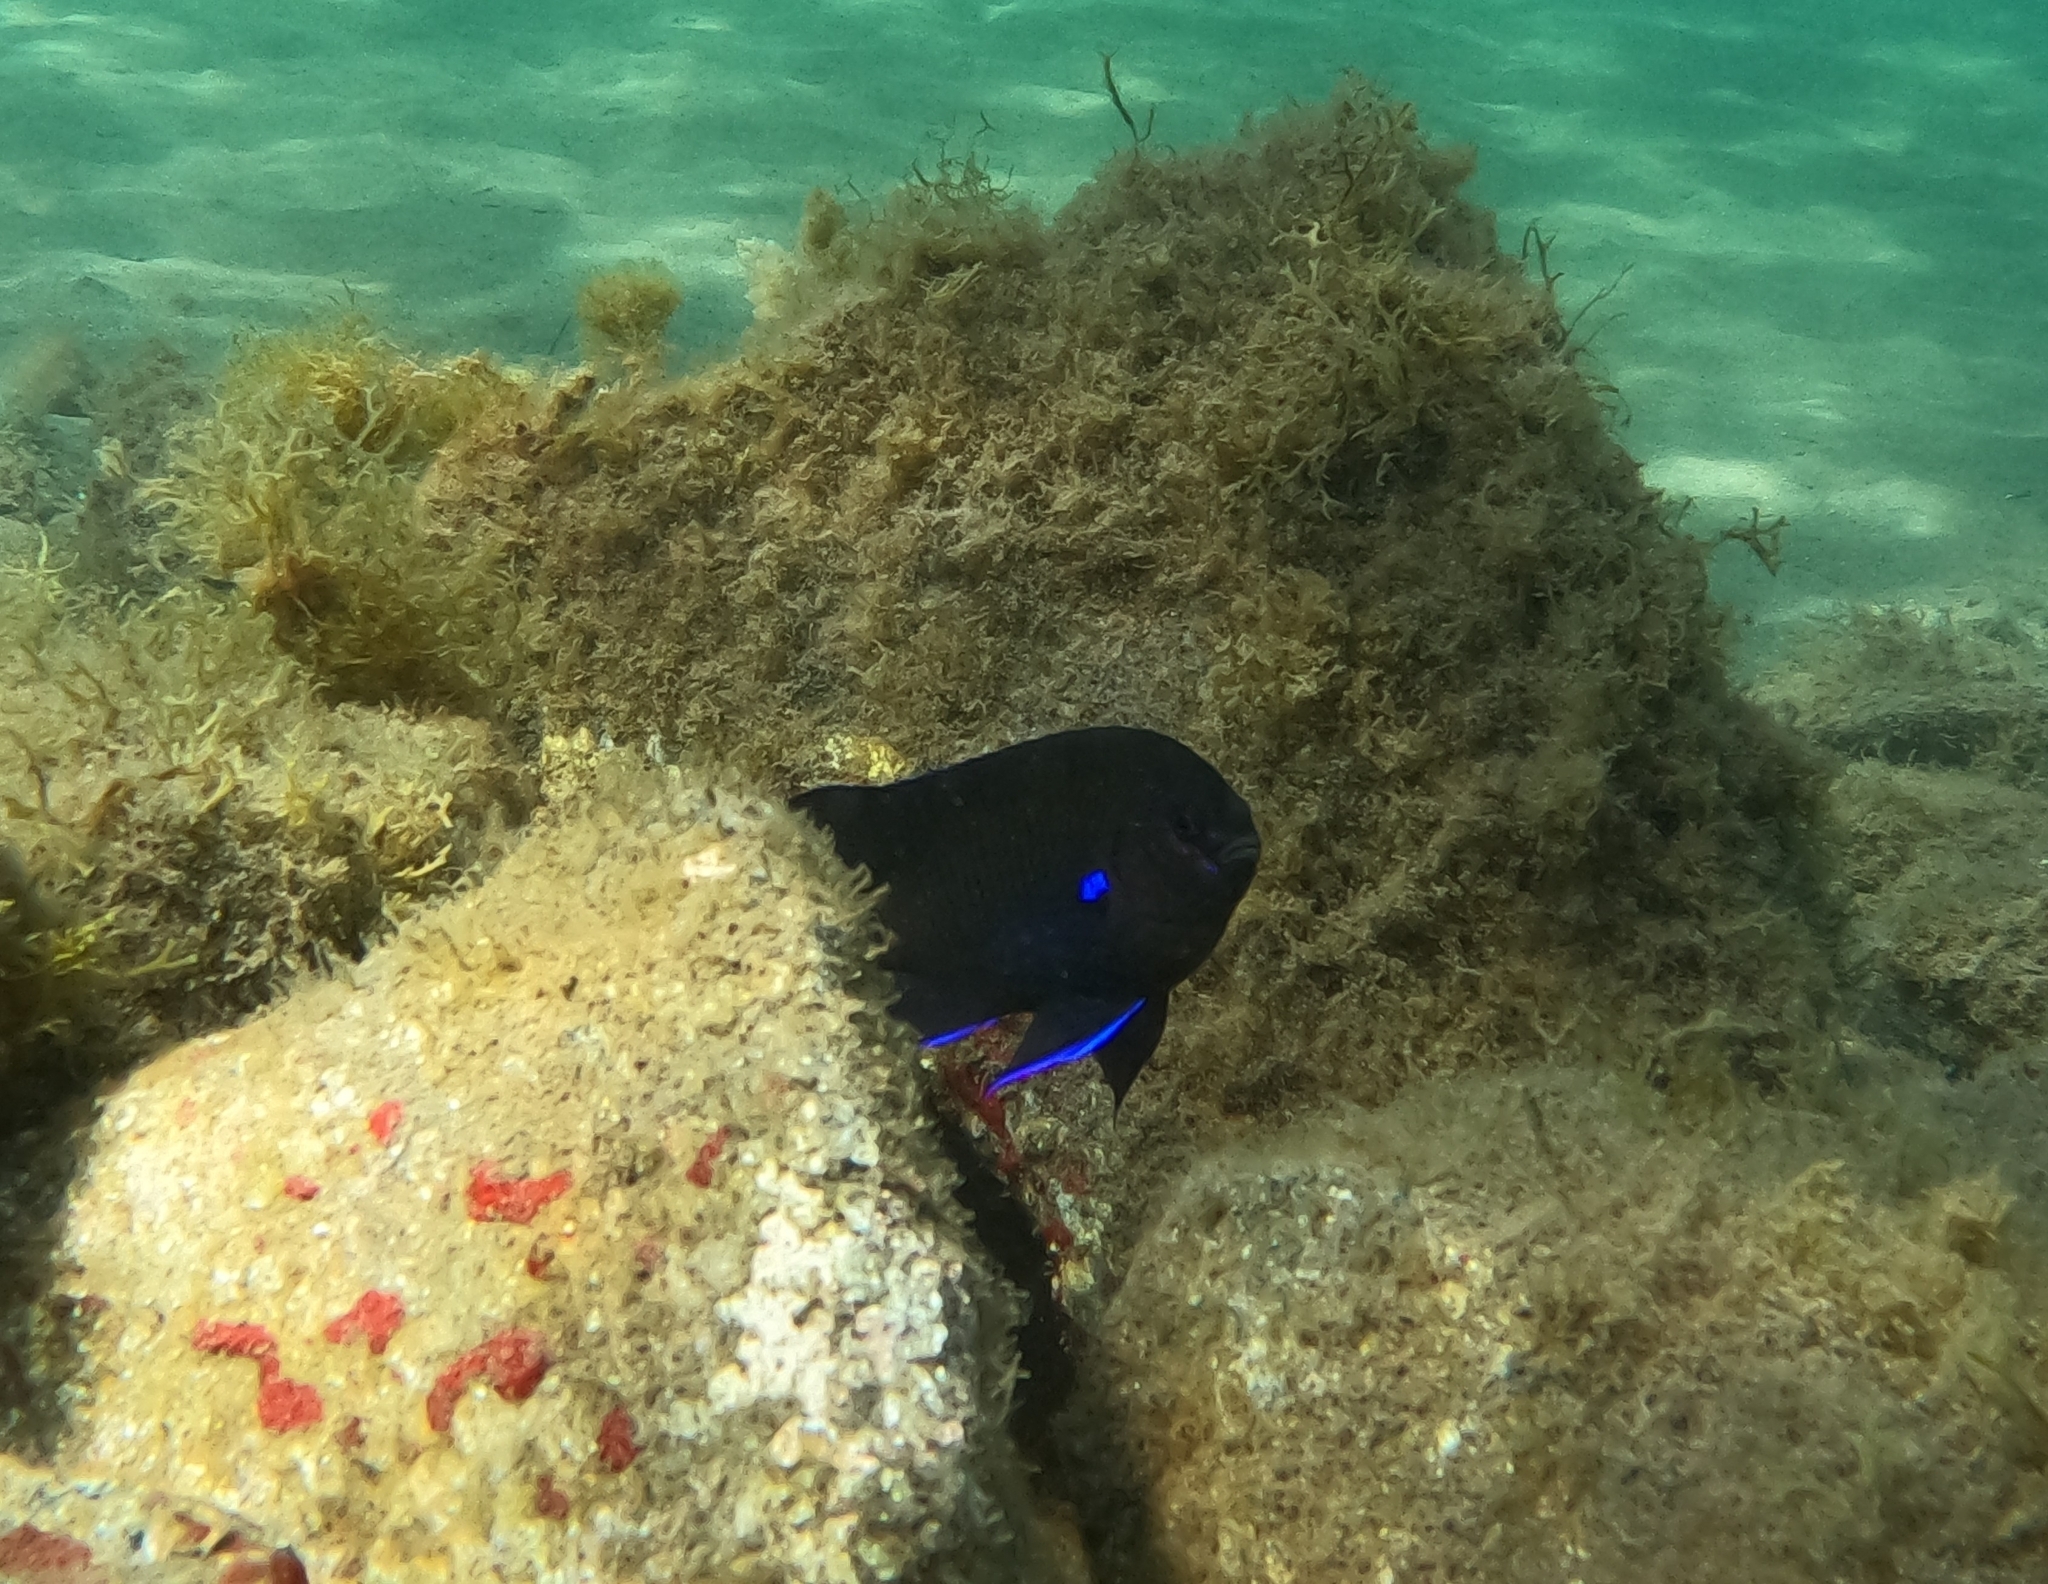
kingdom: Animalia
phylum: Chordata
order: Perciformes
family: Pomacentridae
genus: Similiparma
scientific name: Similiparma lurida
